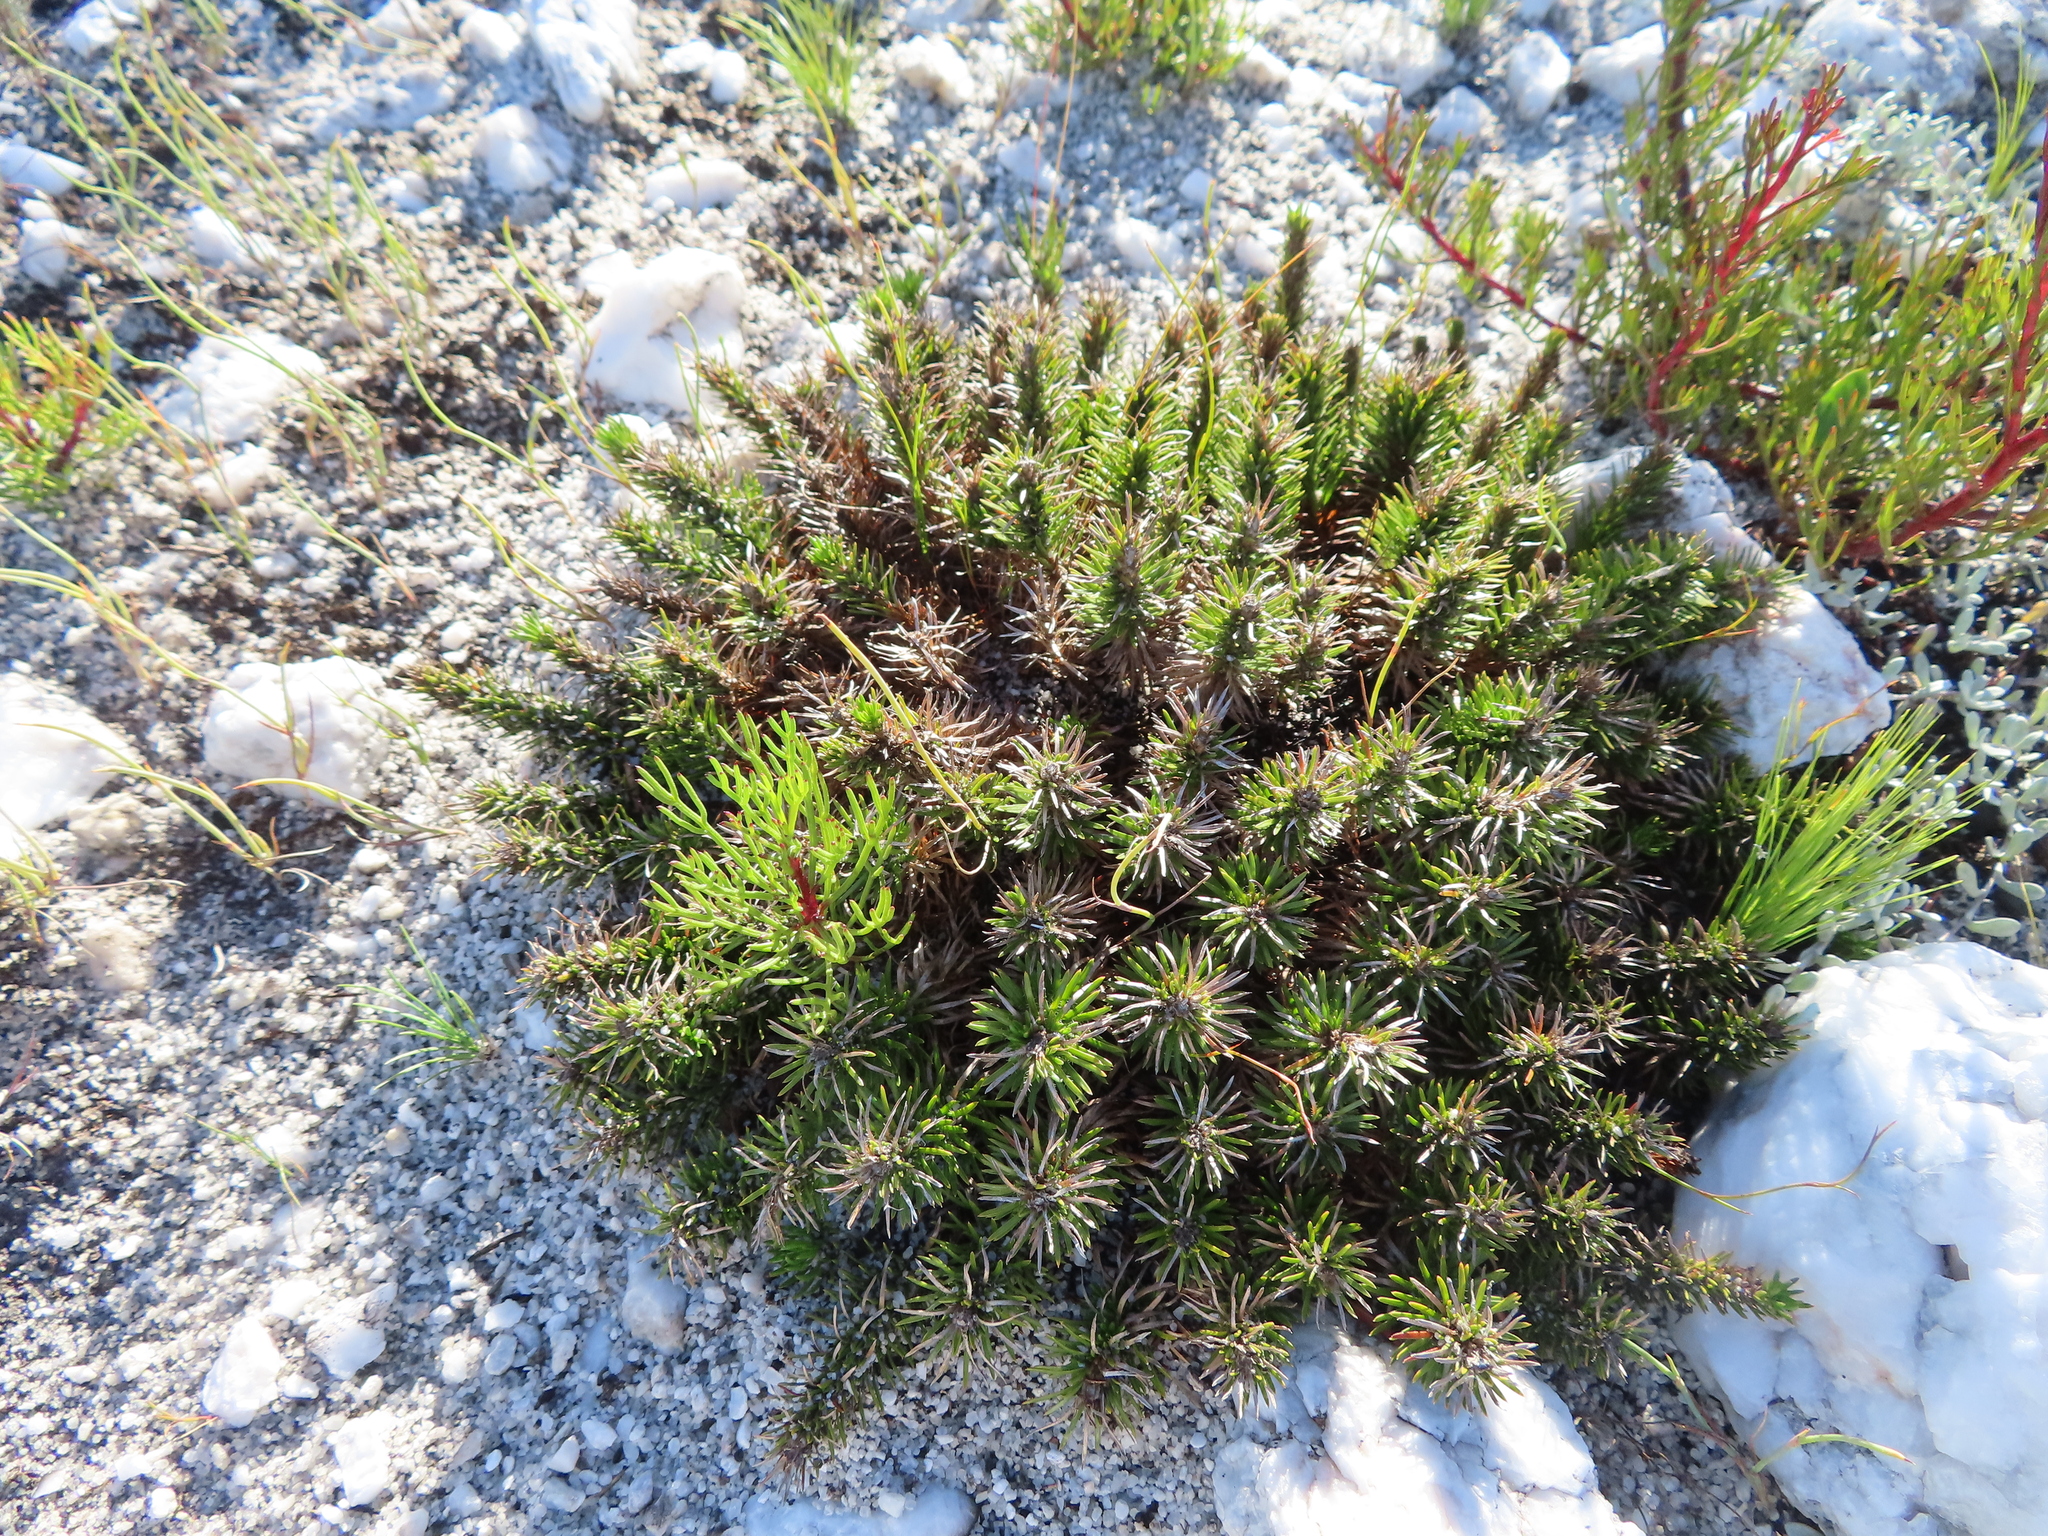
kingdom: Plantae
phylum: Tracheophyta
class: Magnoliopsida
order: Asterales
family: Campanulaceae
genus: Merciera
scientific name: Merciera azurea
